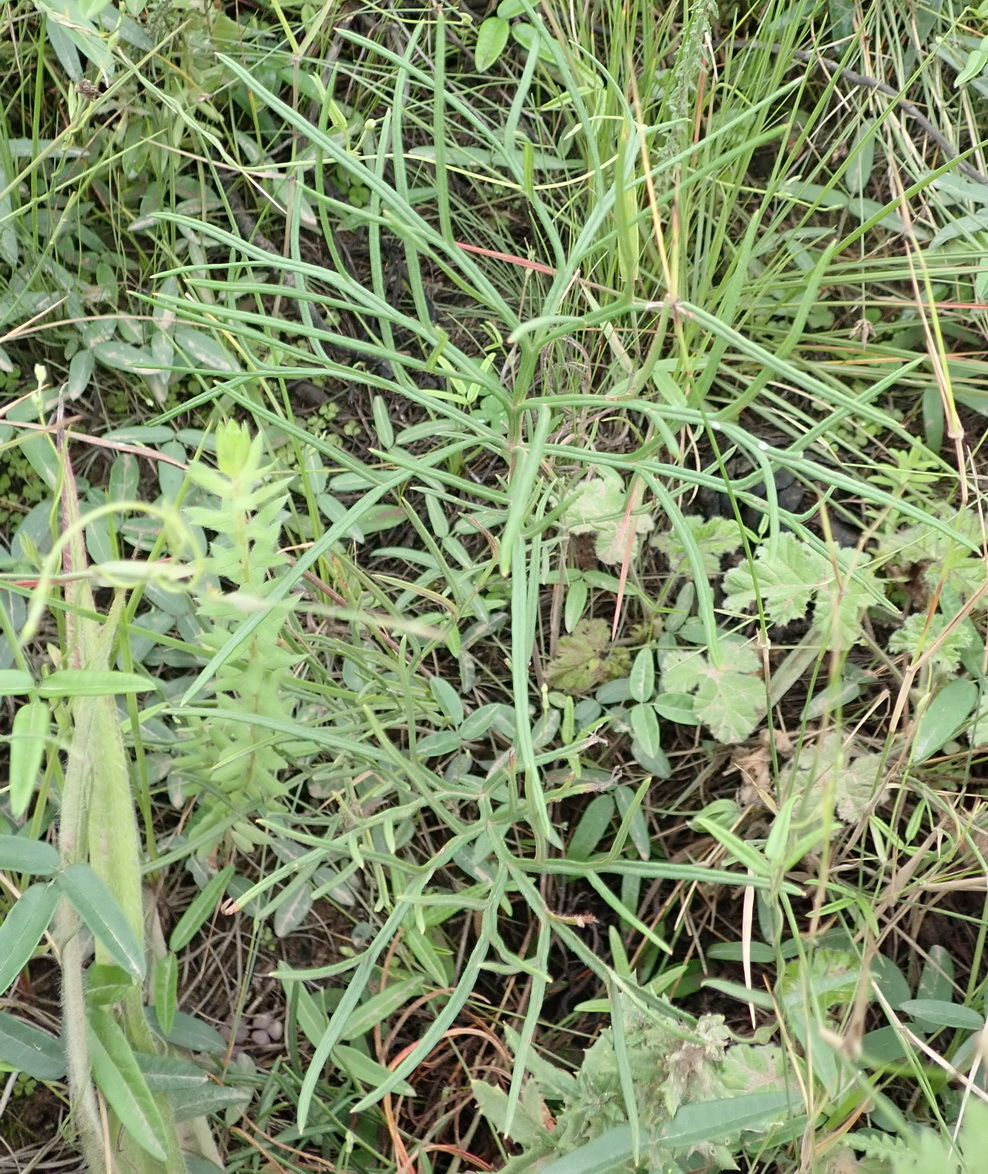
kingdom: Plantae
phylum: Tracheophyta
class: Magnoliopsida
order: Geraniales
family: Geraniaceae
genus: Pelargonium
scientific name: Pelargonium caffrum
